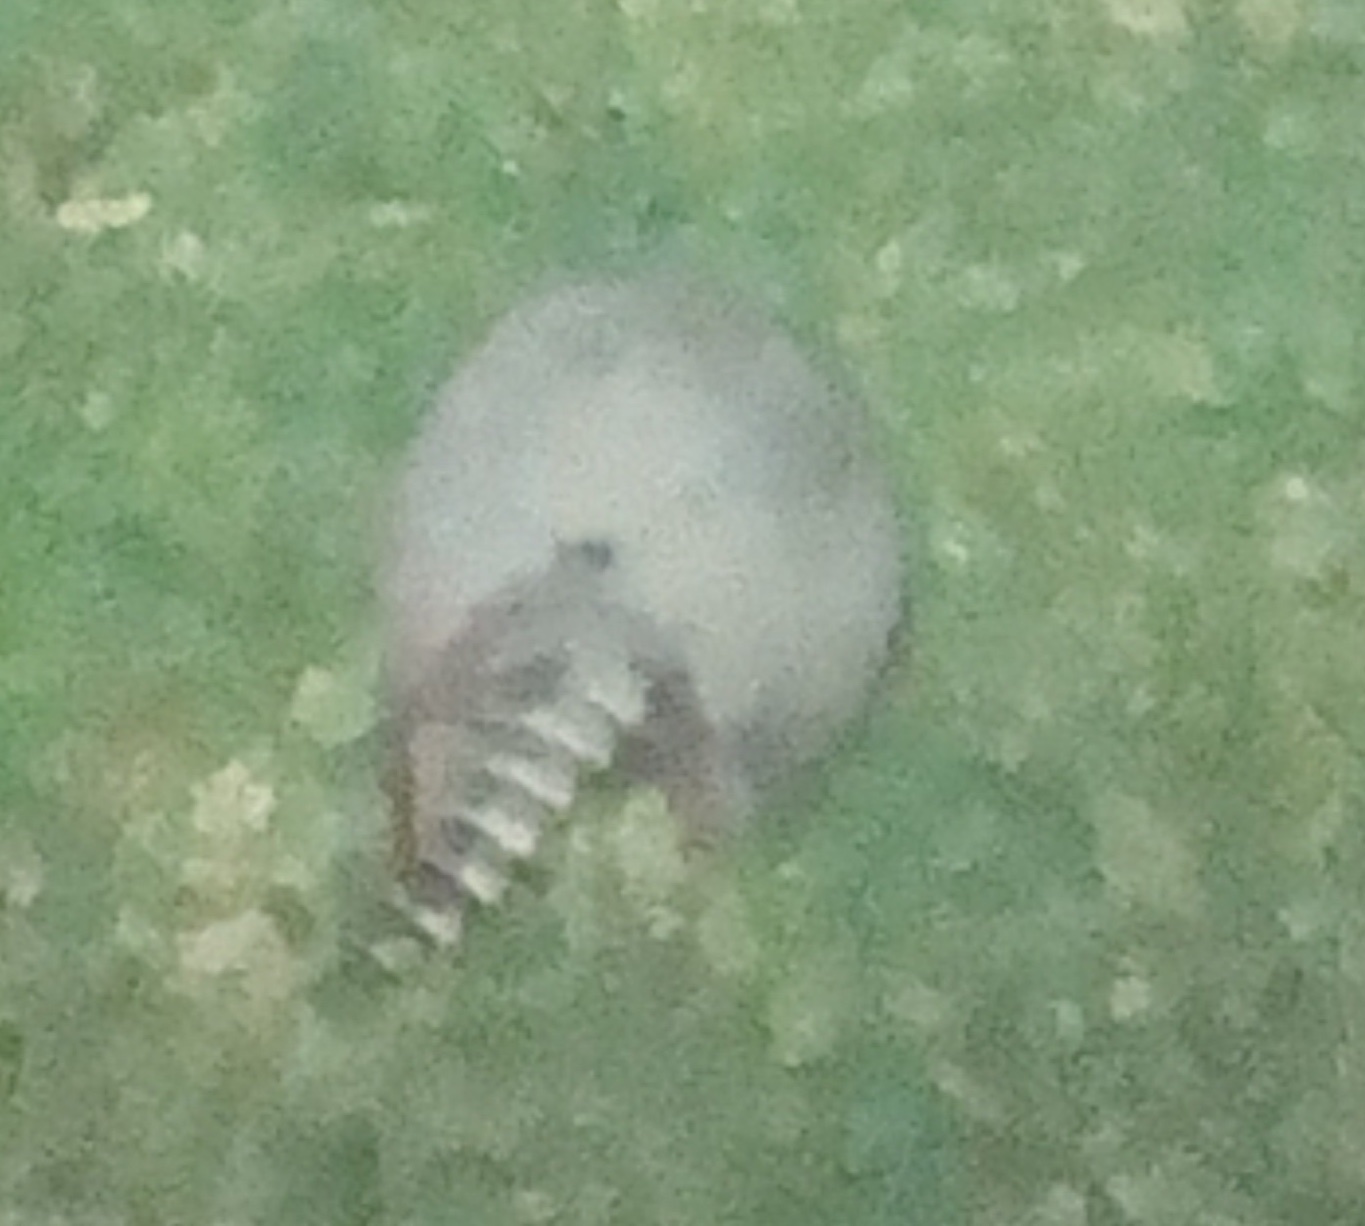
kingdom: Animalia
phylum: Chordata
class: Mammalia
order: Cingulata
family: Dasypodidae
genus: Dasypus
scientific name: Dasypus novemcinctus
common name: Nine-banded armadillo
